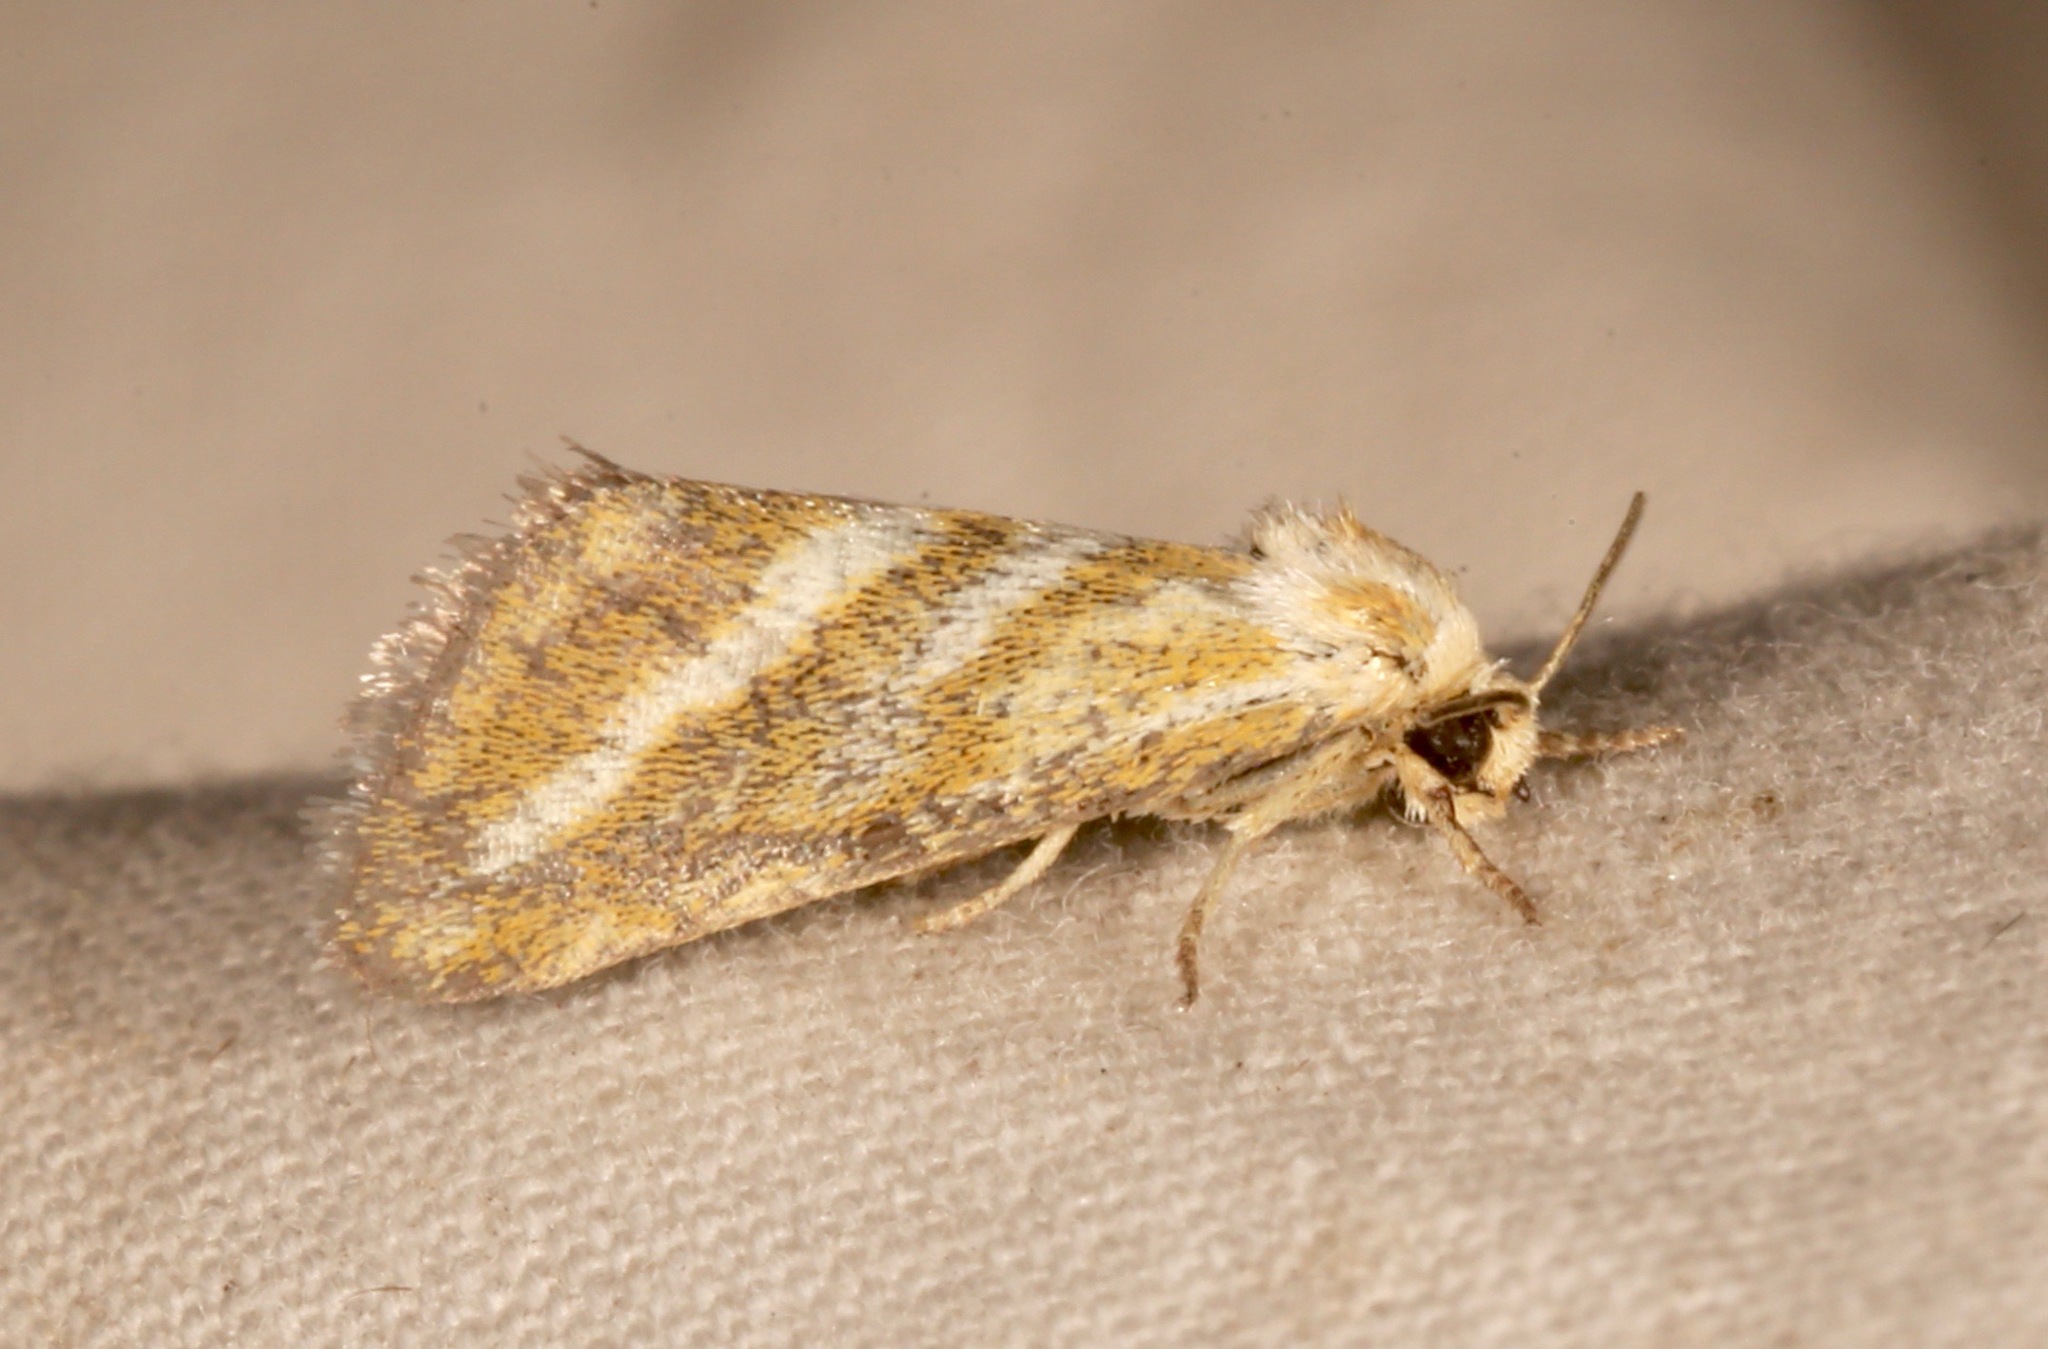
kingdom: Animalia
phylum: Arthropoda
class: Insecta
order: Lepidoptera
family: Noctuidae
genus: Lineostriastiria
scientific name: Lineostriastiria hutsoni
